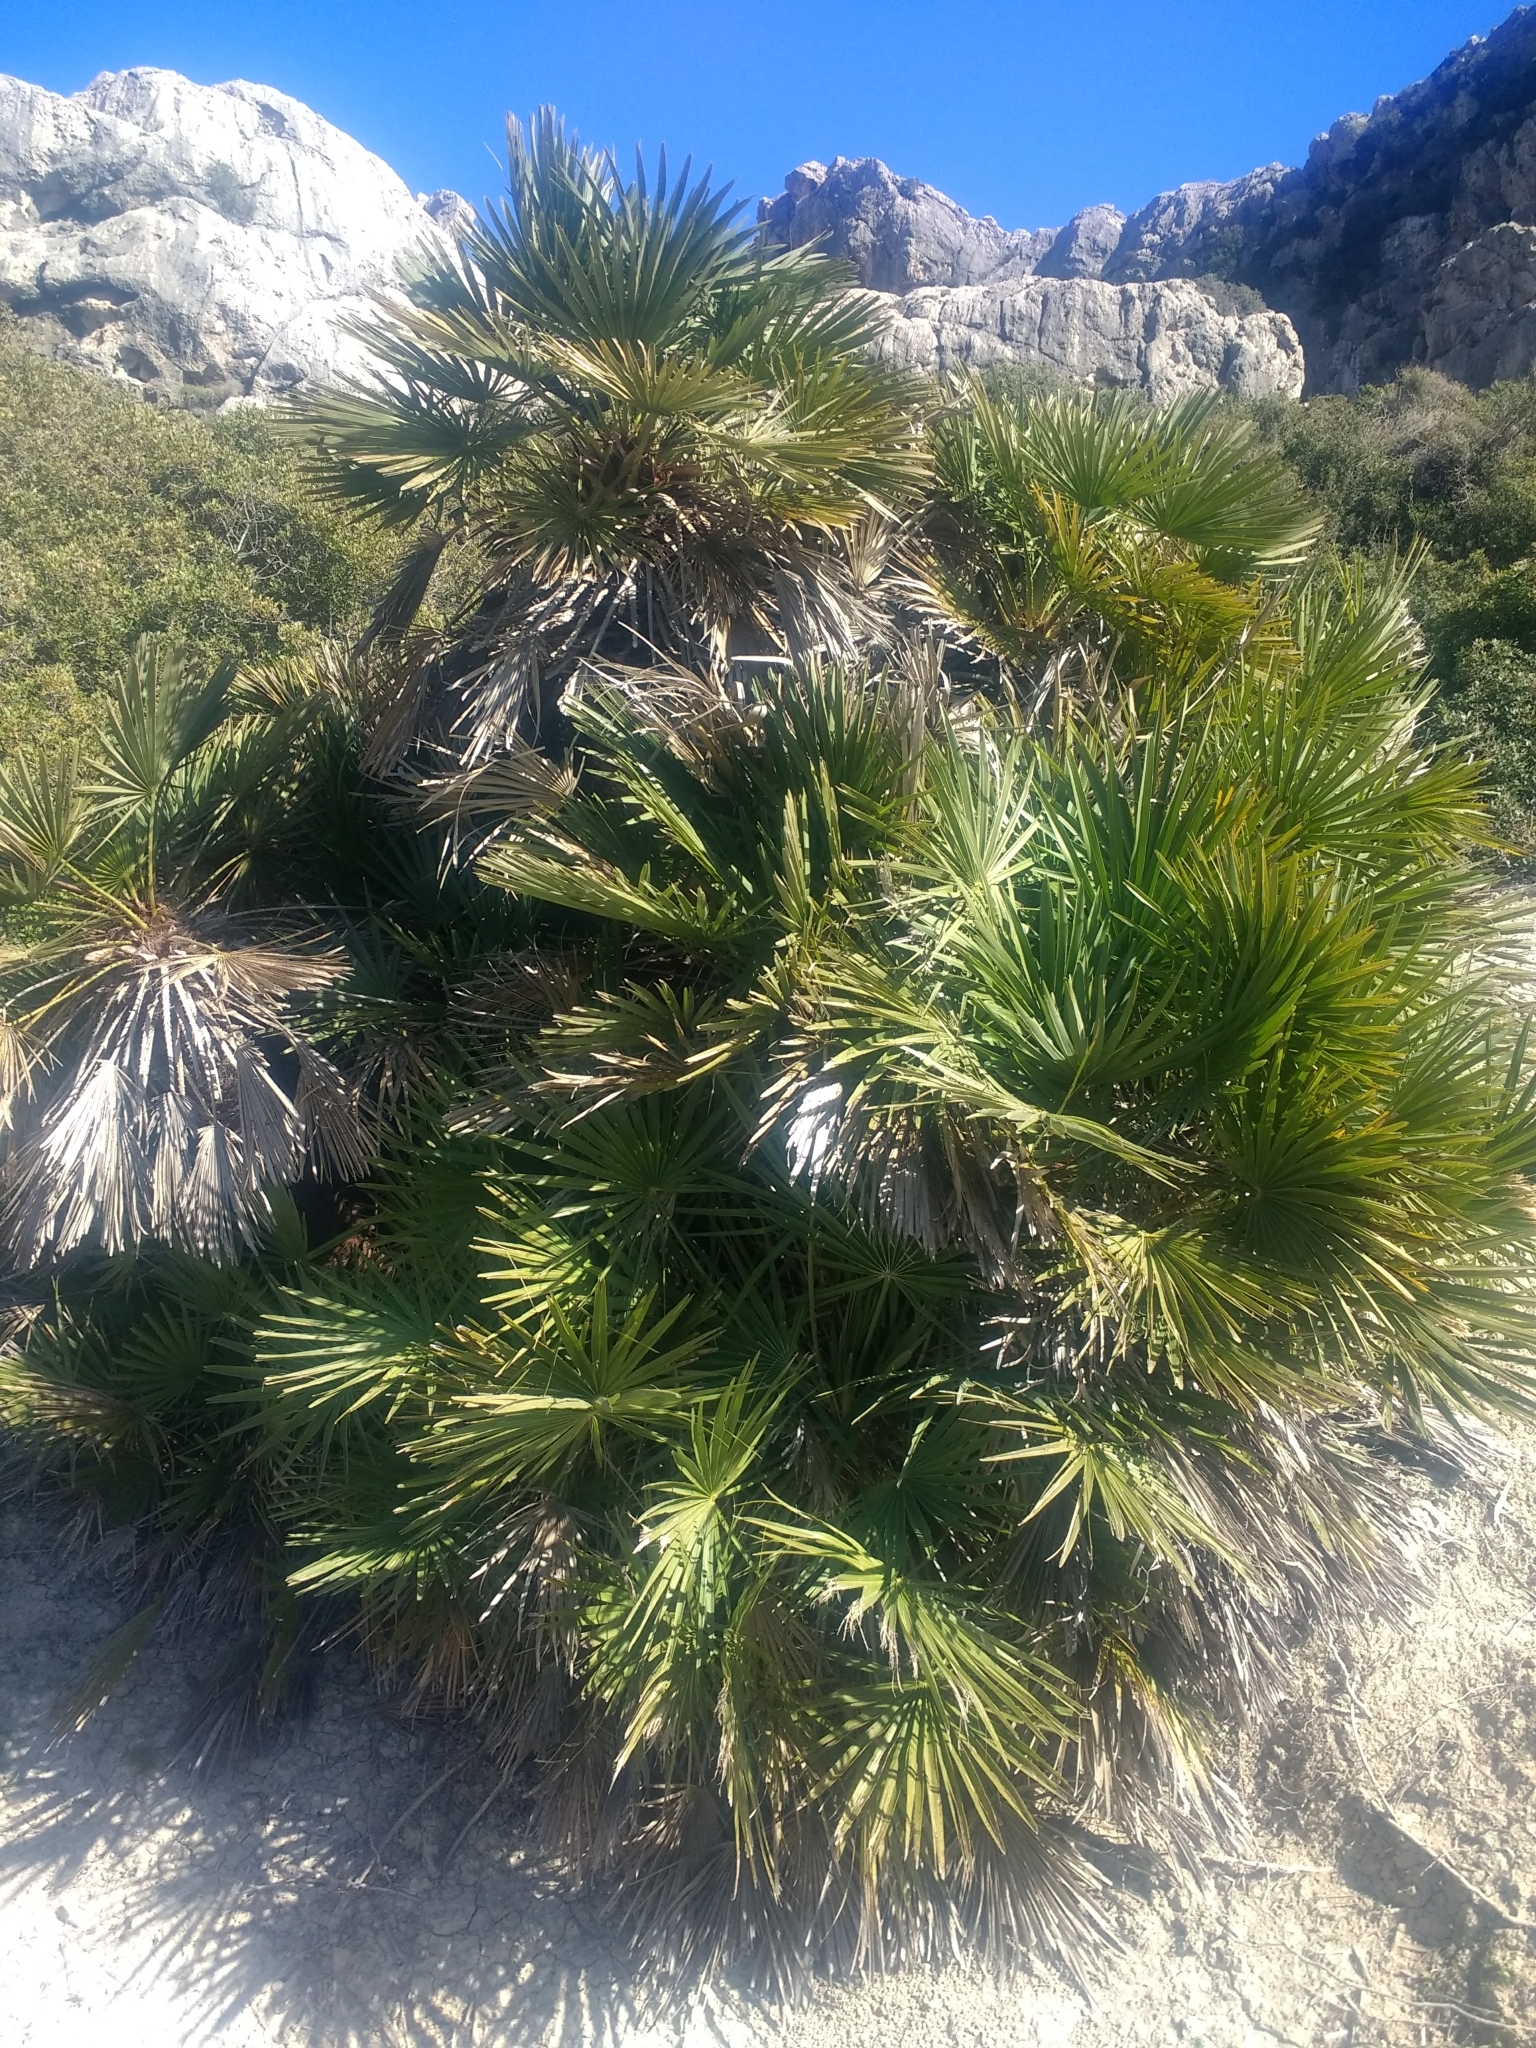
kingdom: Plantae
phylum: Tracheophyta
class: Liliopsida
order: Arecales
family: Arecaceae
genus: Chamaerops
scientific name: Chamaerops humilis
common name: Dwarf fan palm
